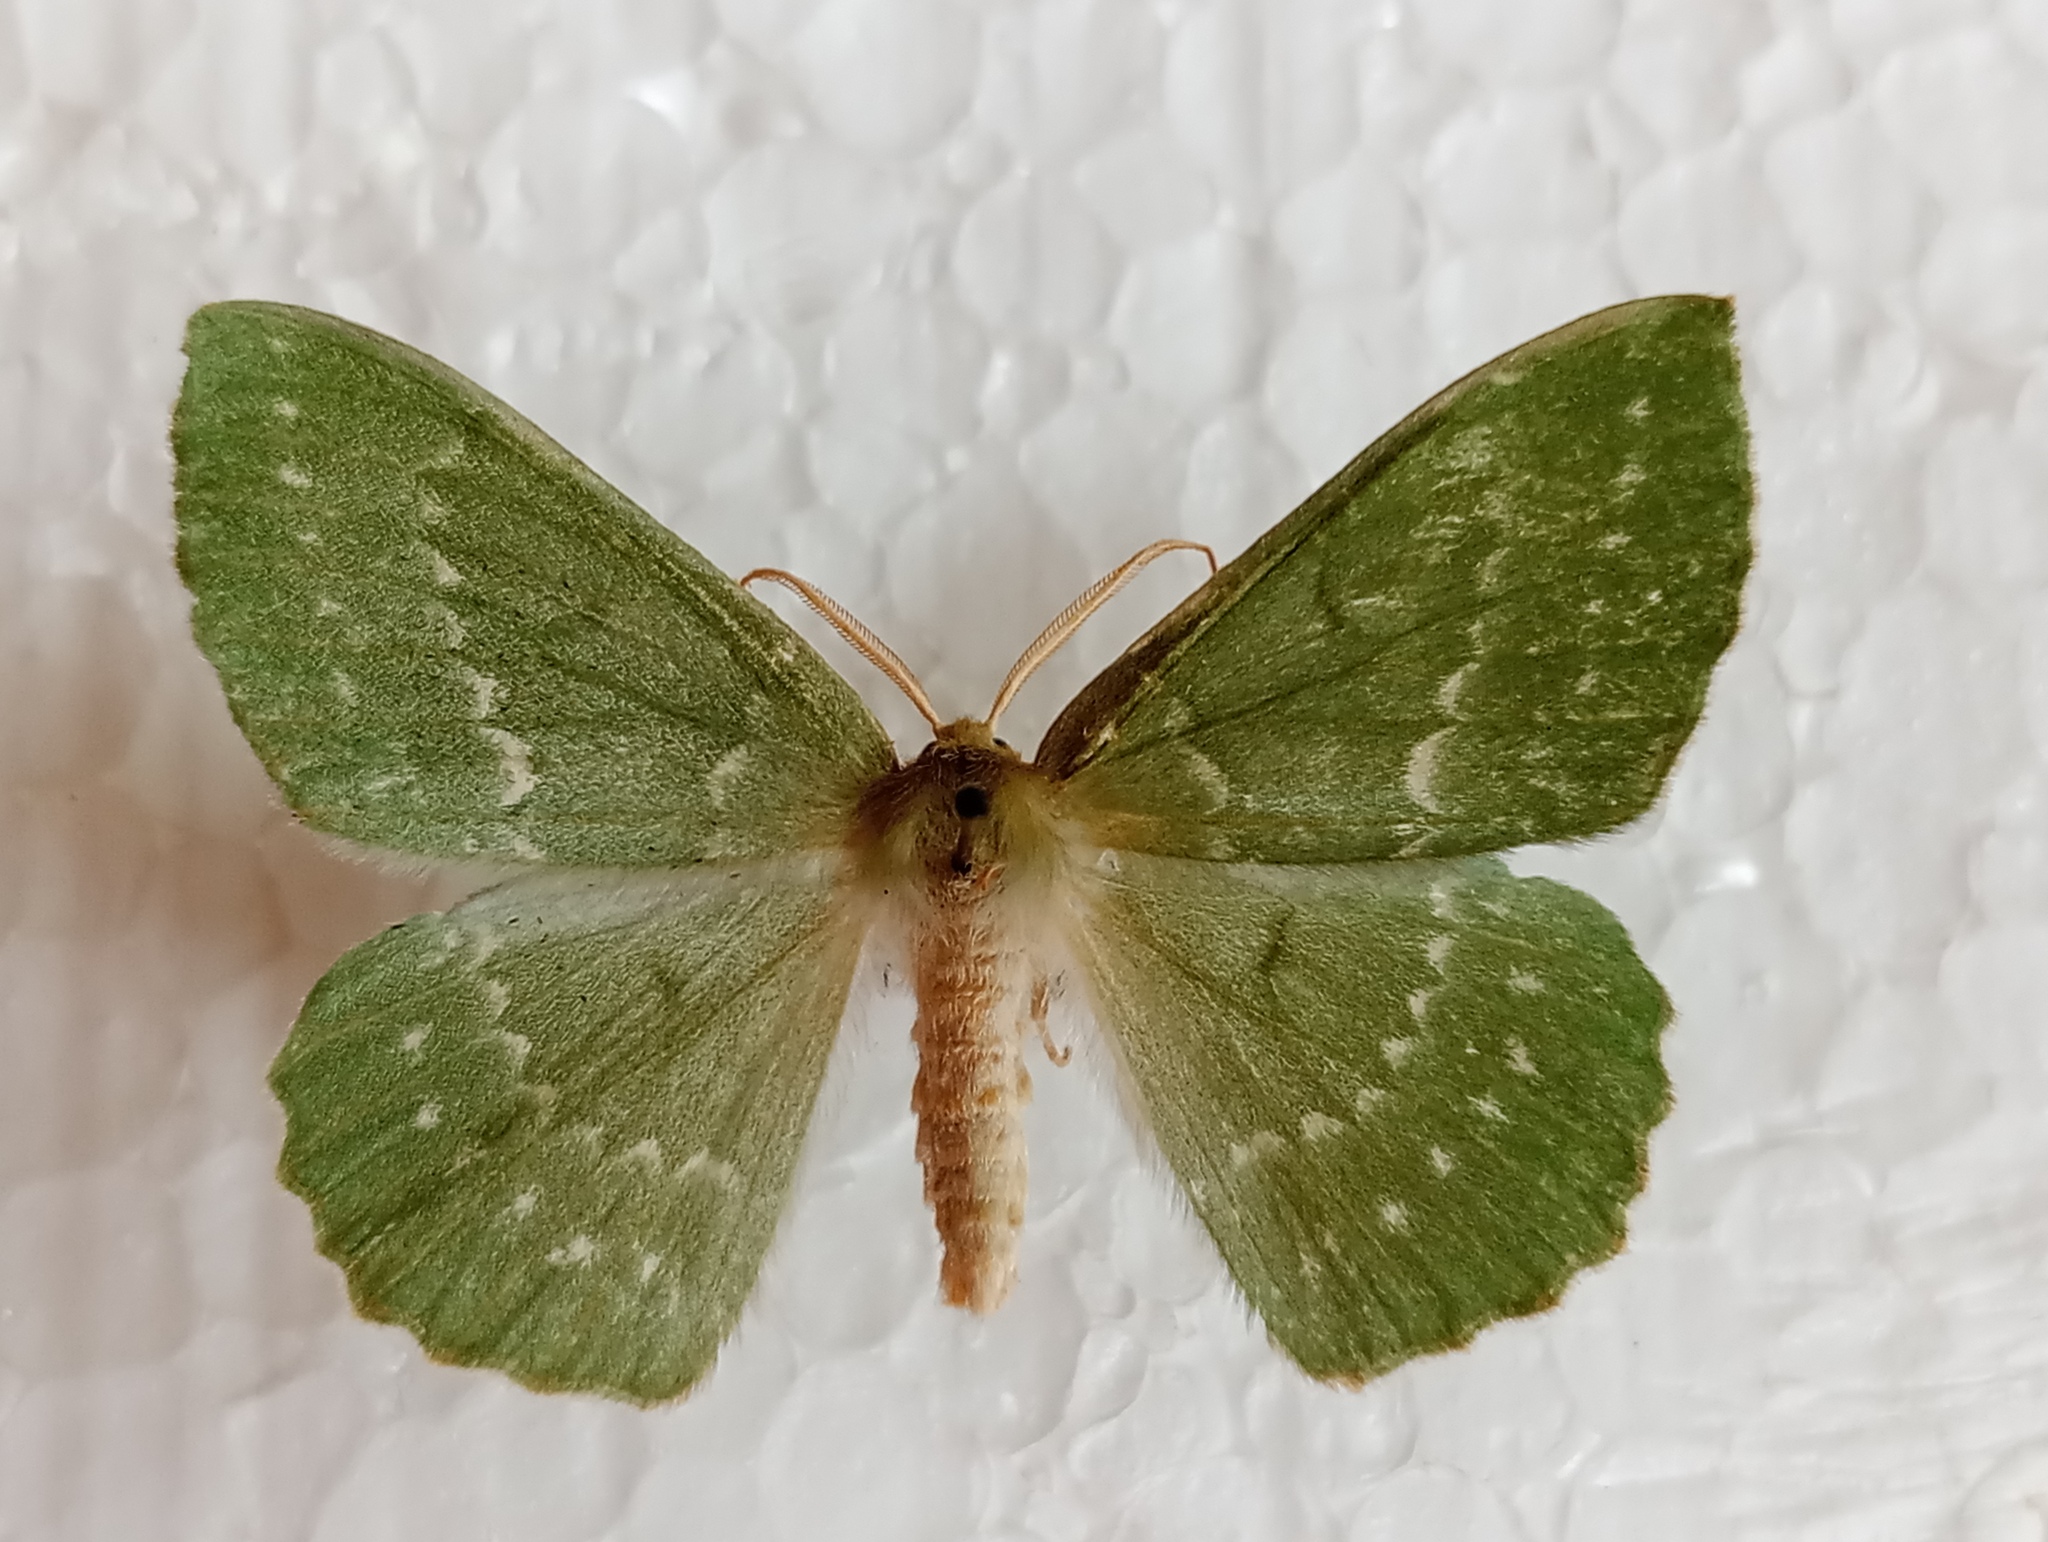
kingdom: Animalia
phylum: Arthropoda
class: Insecta
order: Lepidoptera
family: Geometridae
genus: Geometra
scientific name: Geometra papilionaria
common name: Large emerald
